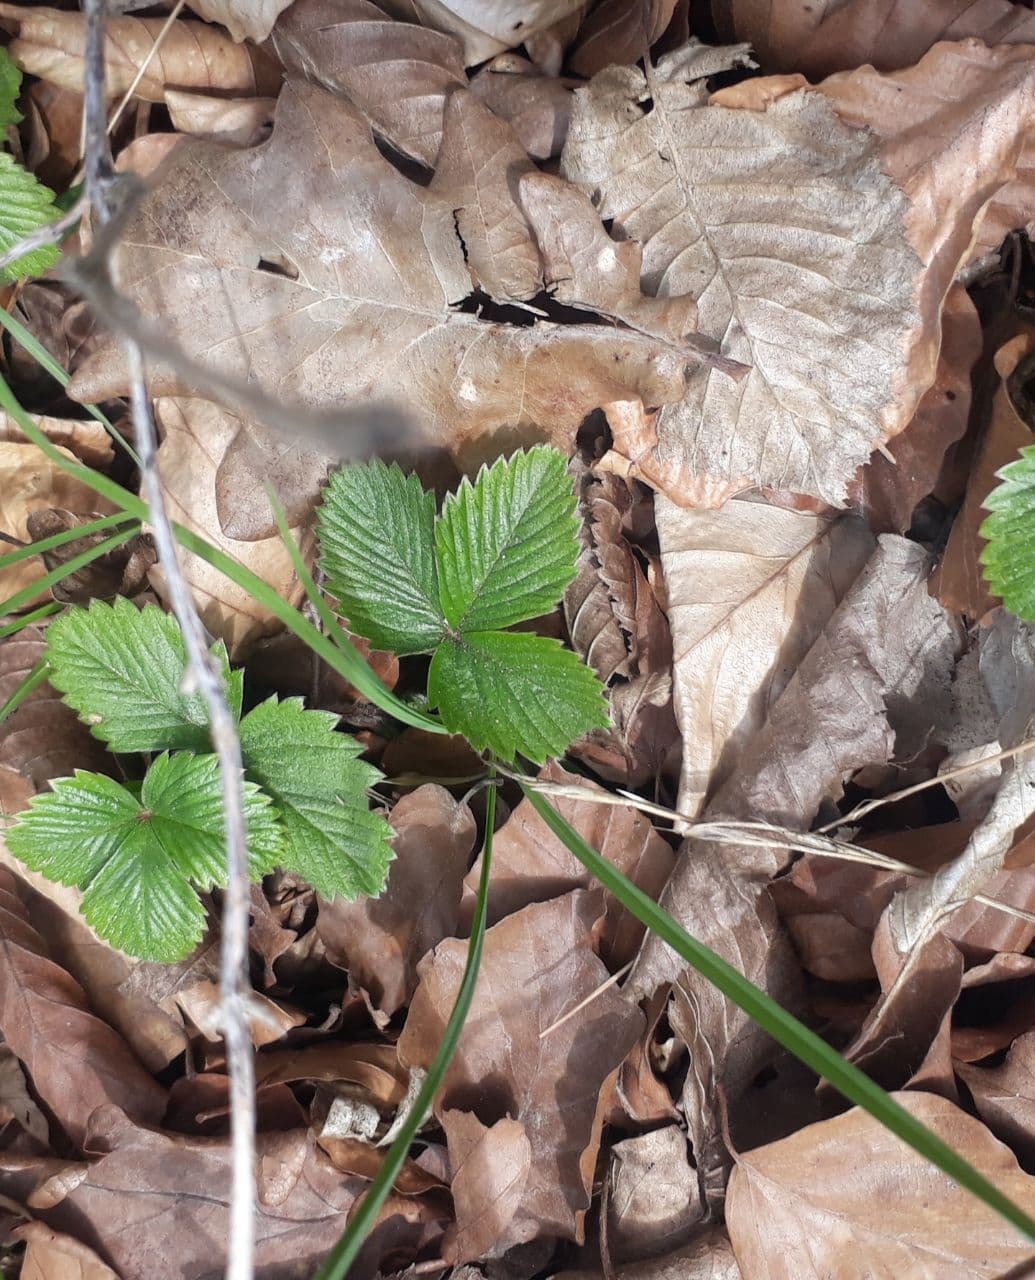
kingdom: Plantae
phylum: Tracheophyta
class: Magnoliopsida
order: Rosales
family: Rosaceae
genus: Fragaria
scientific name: Fragaria vesca
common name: Wild strawberry
